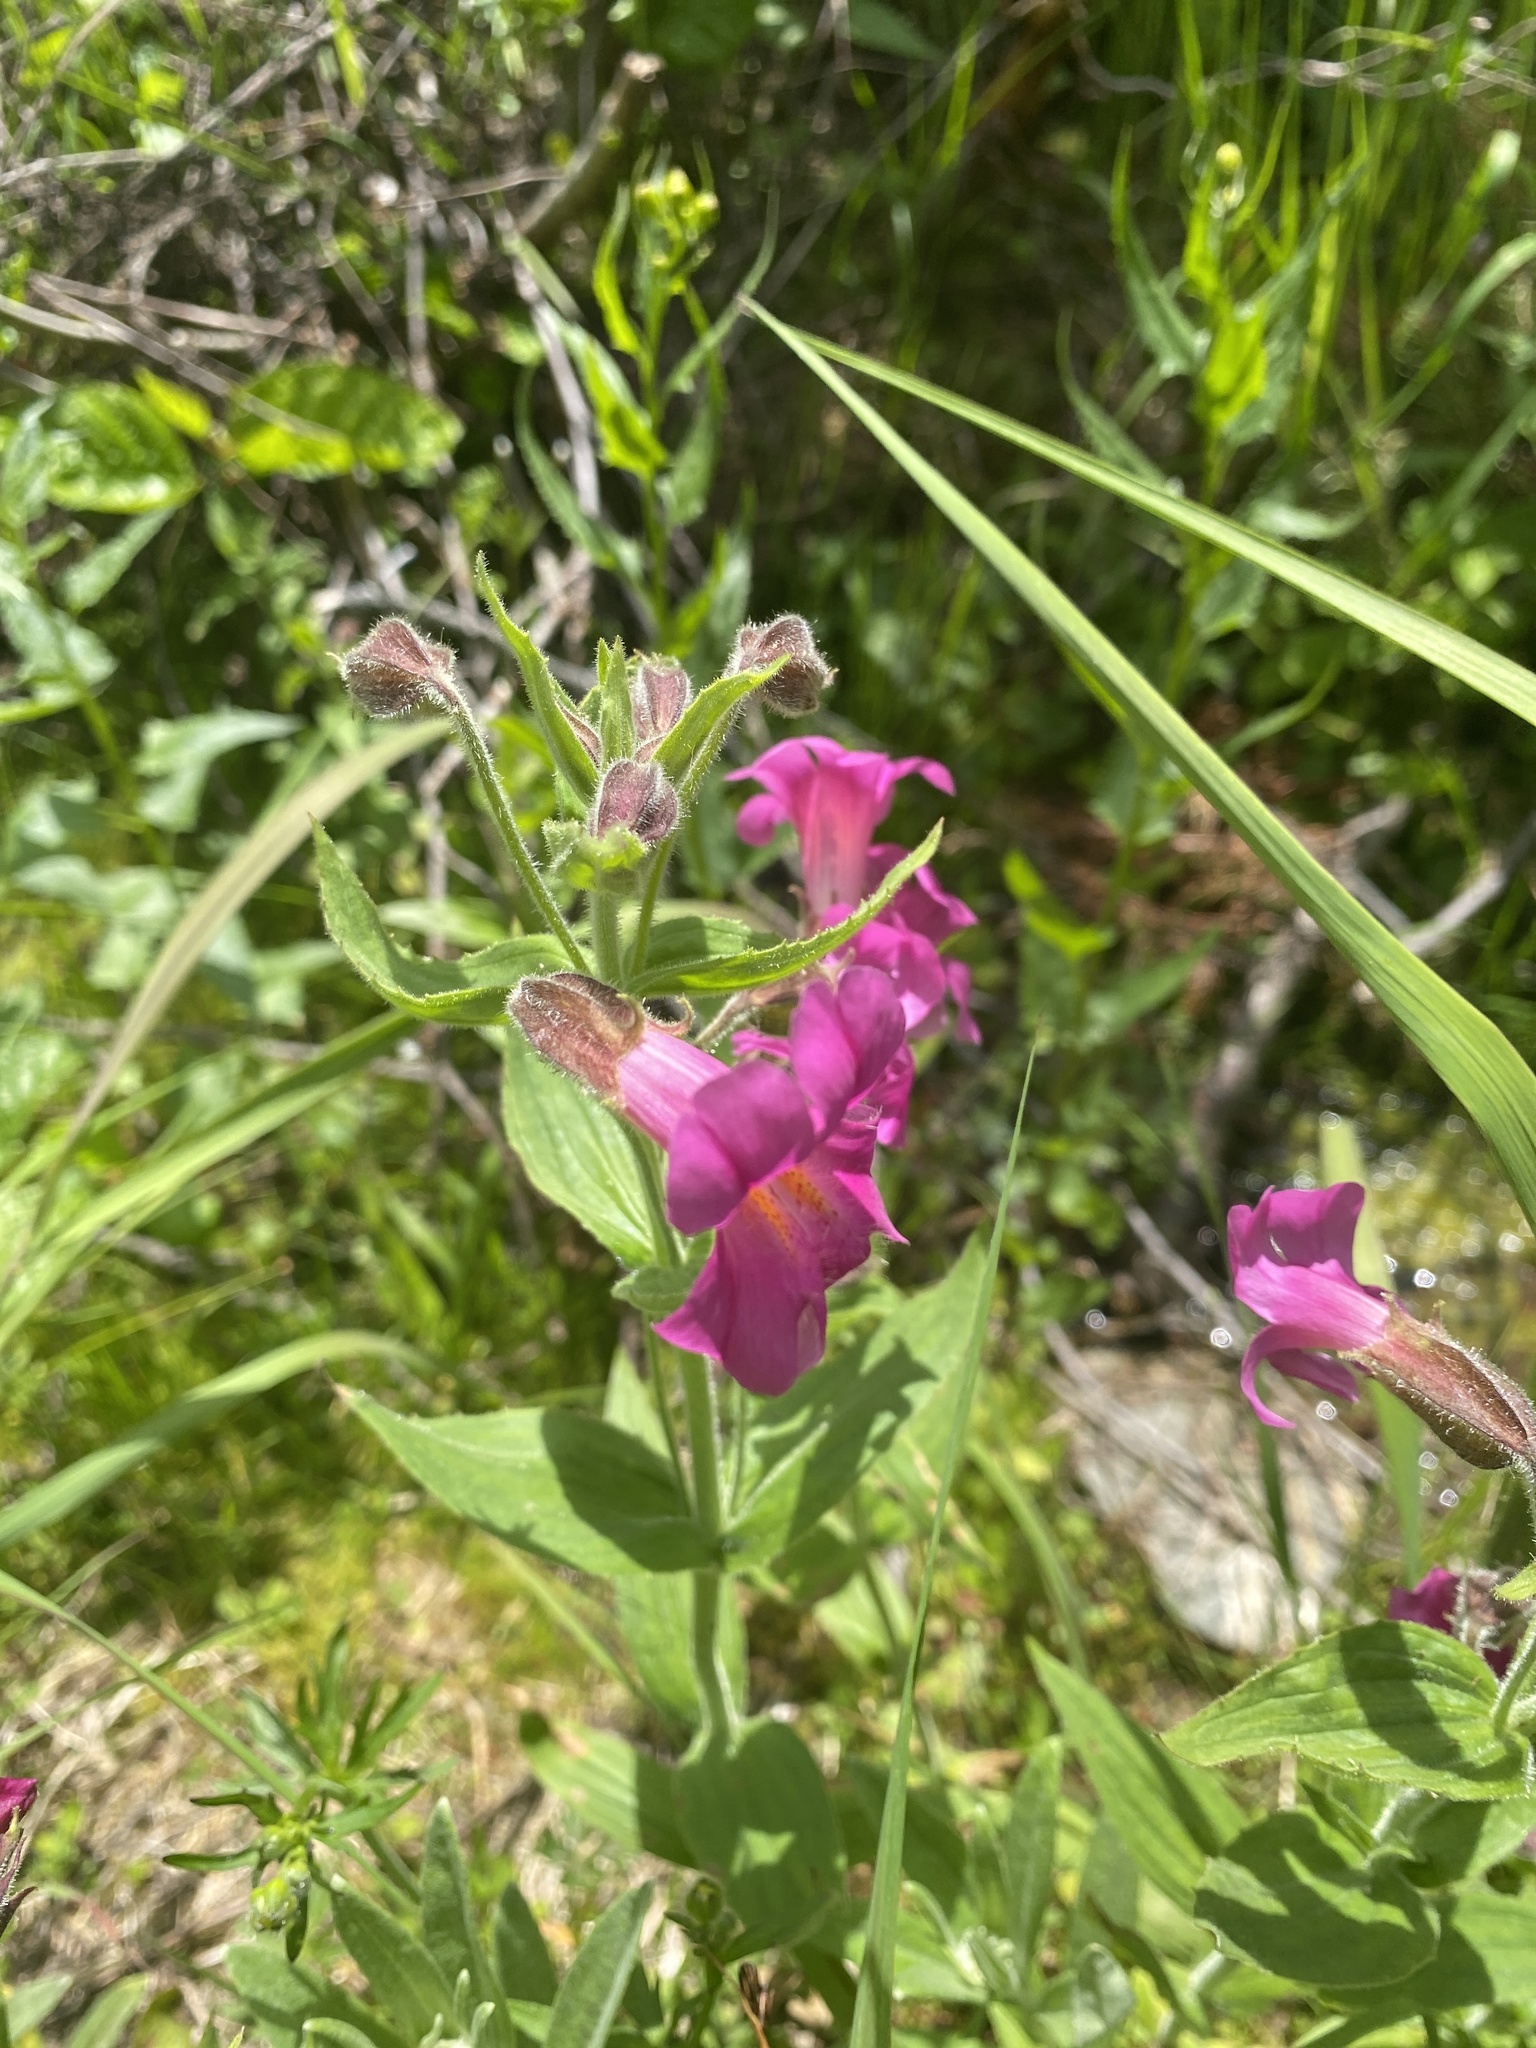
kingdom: Plantae
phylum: Tracheophyta
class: Magnoliopsida
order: Lamiales
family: Phrymaceae
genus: Erythranthe
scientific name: Erythranthe lewisii
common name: Lewis's monkey-flower
